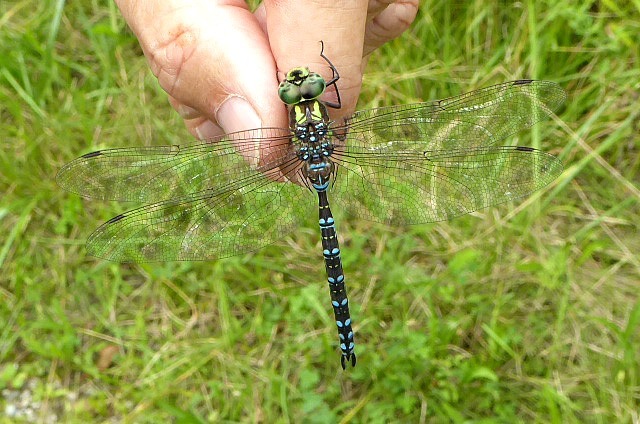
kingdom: Animalia
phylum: Arthropoda
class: Insecta
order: Odonata
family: Aeshnidae
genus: Aeshna
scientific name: Aeshna verticalis
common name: Green-striped darner
